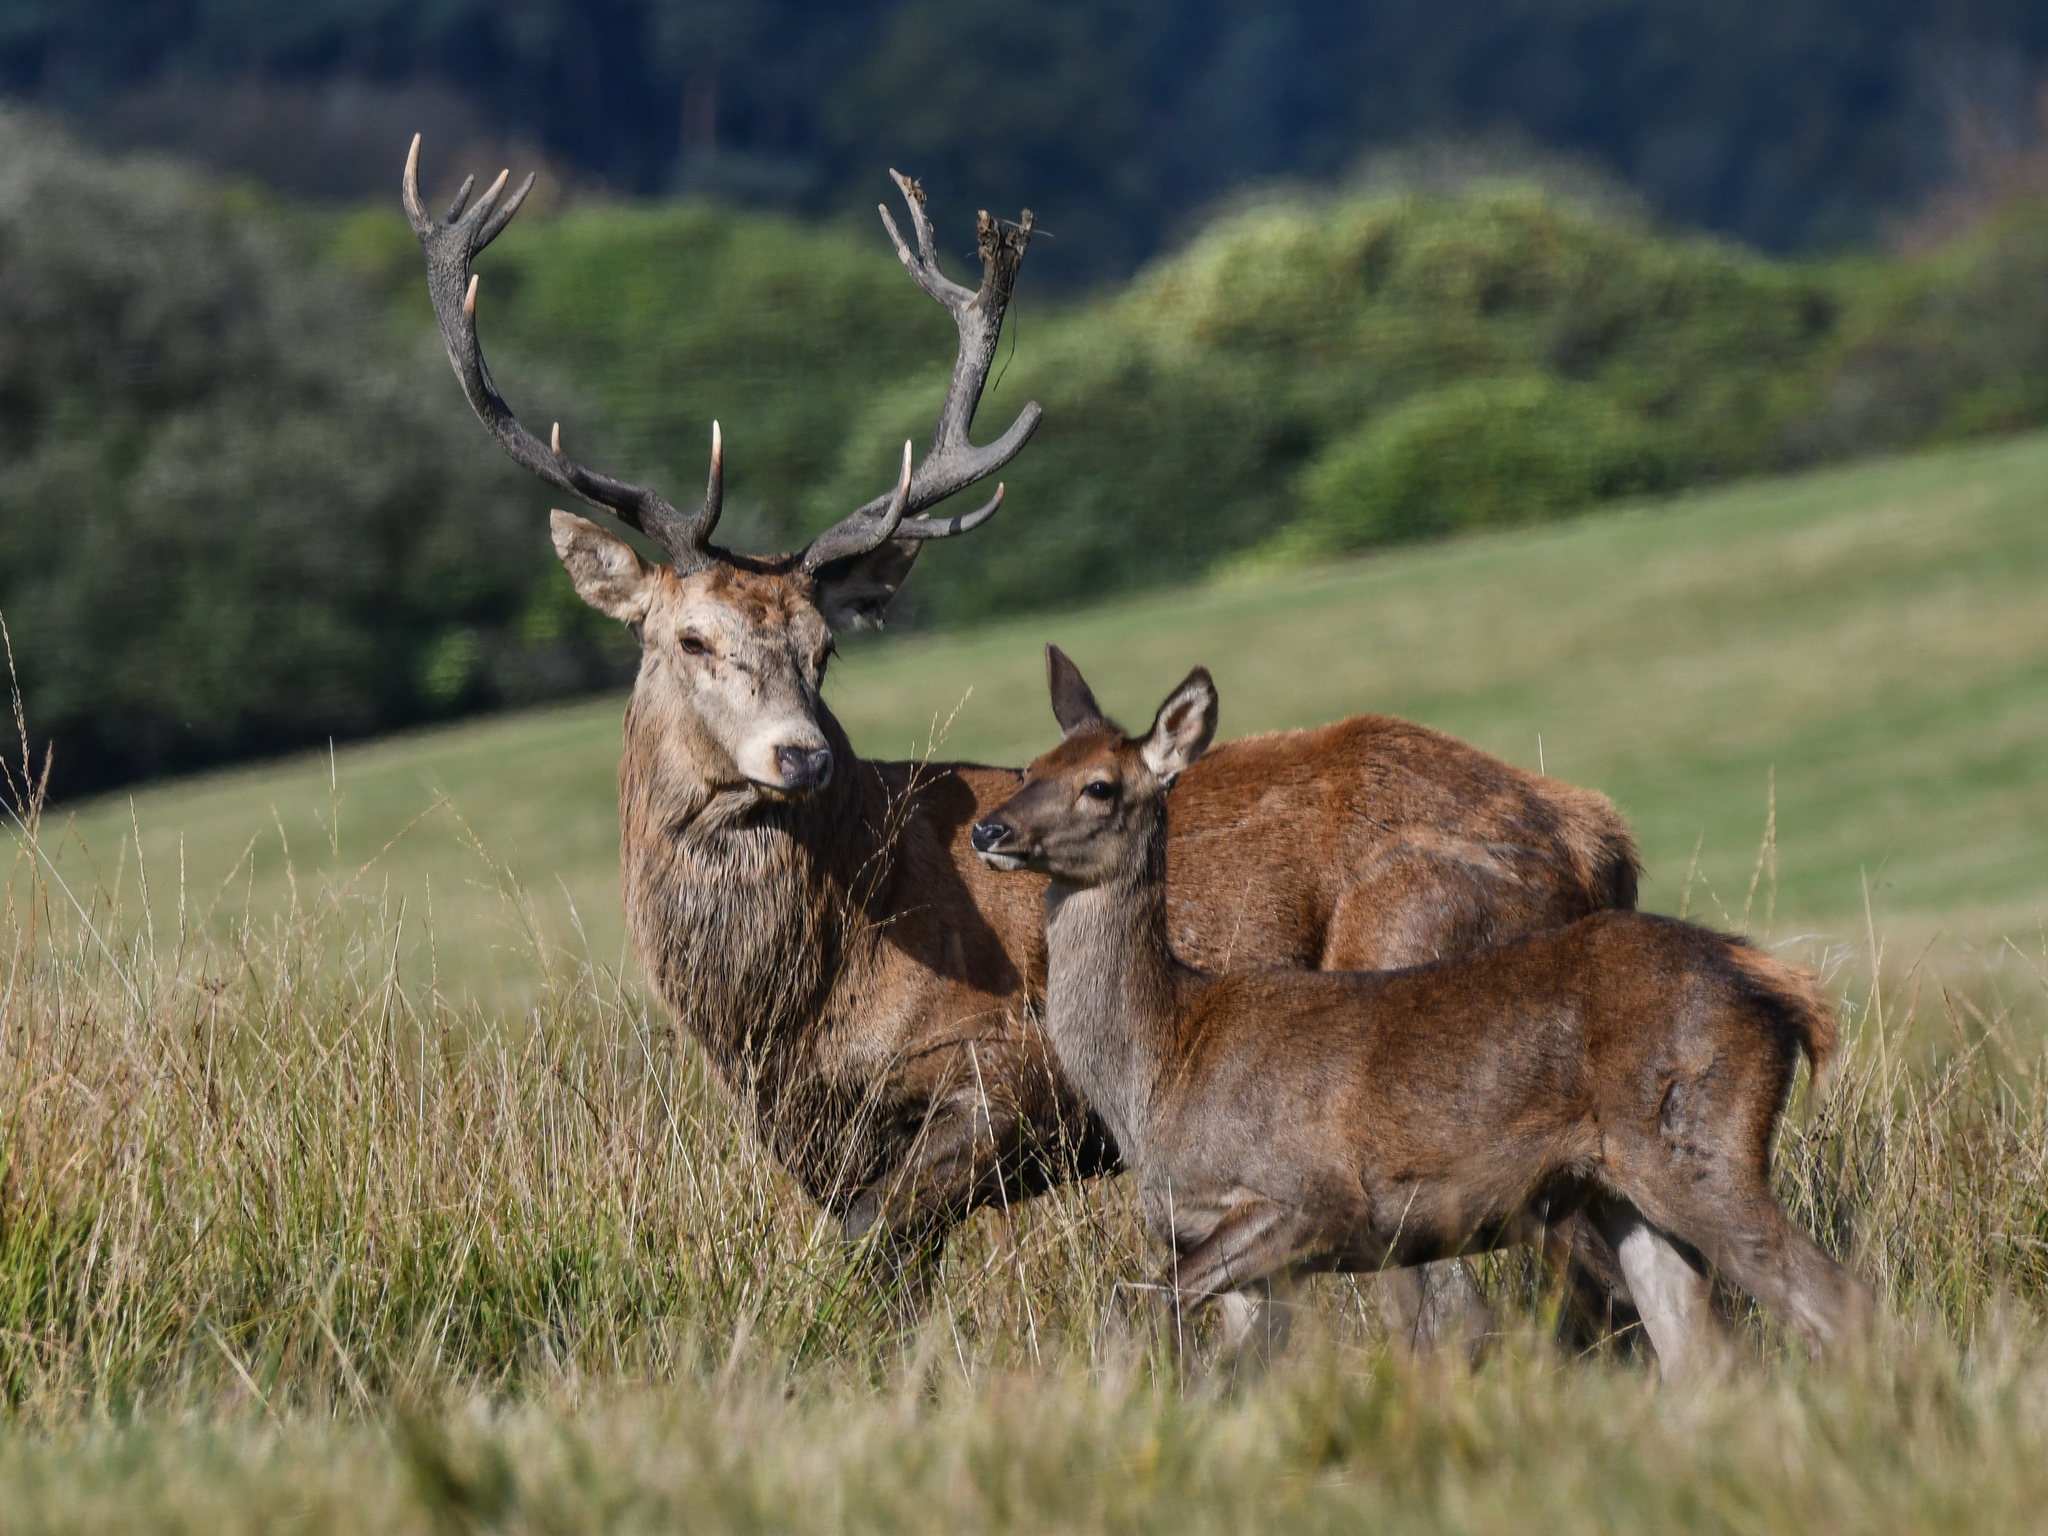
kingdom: Animalia
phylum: Chordata
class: Mammalia
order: Artiodactyla
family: Cervidae
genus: Cervus
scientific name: Cervus elaphus
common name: Red deer
